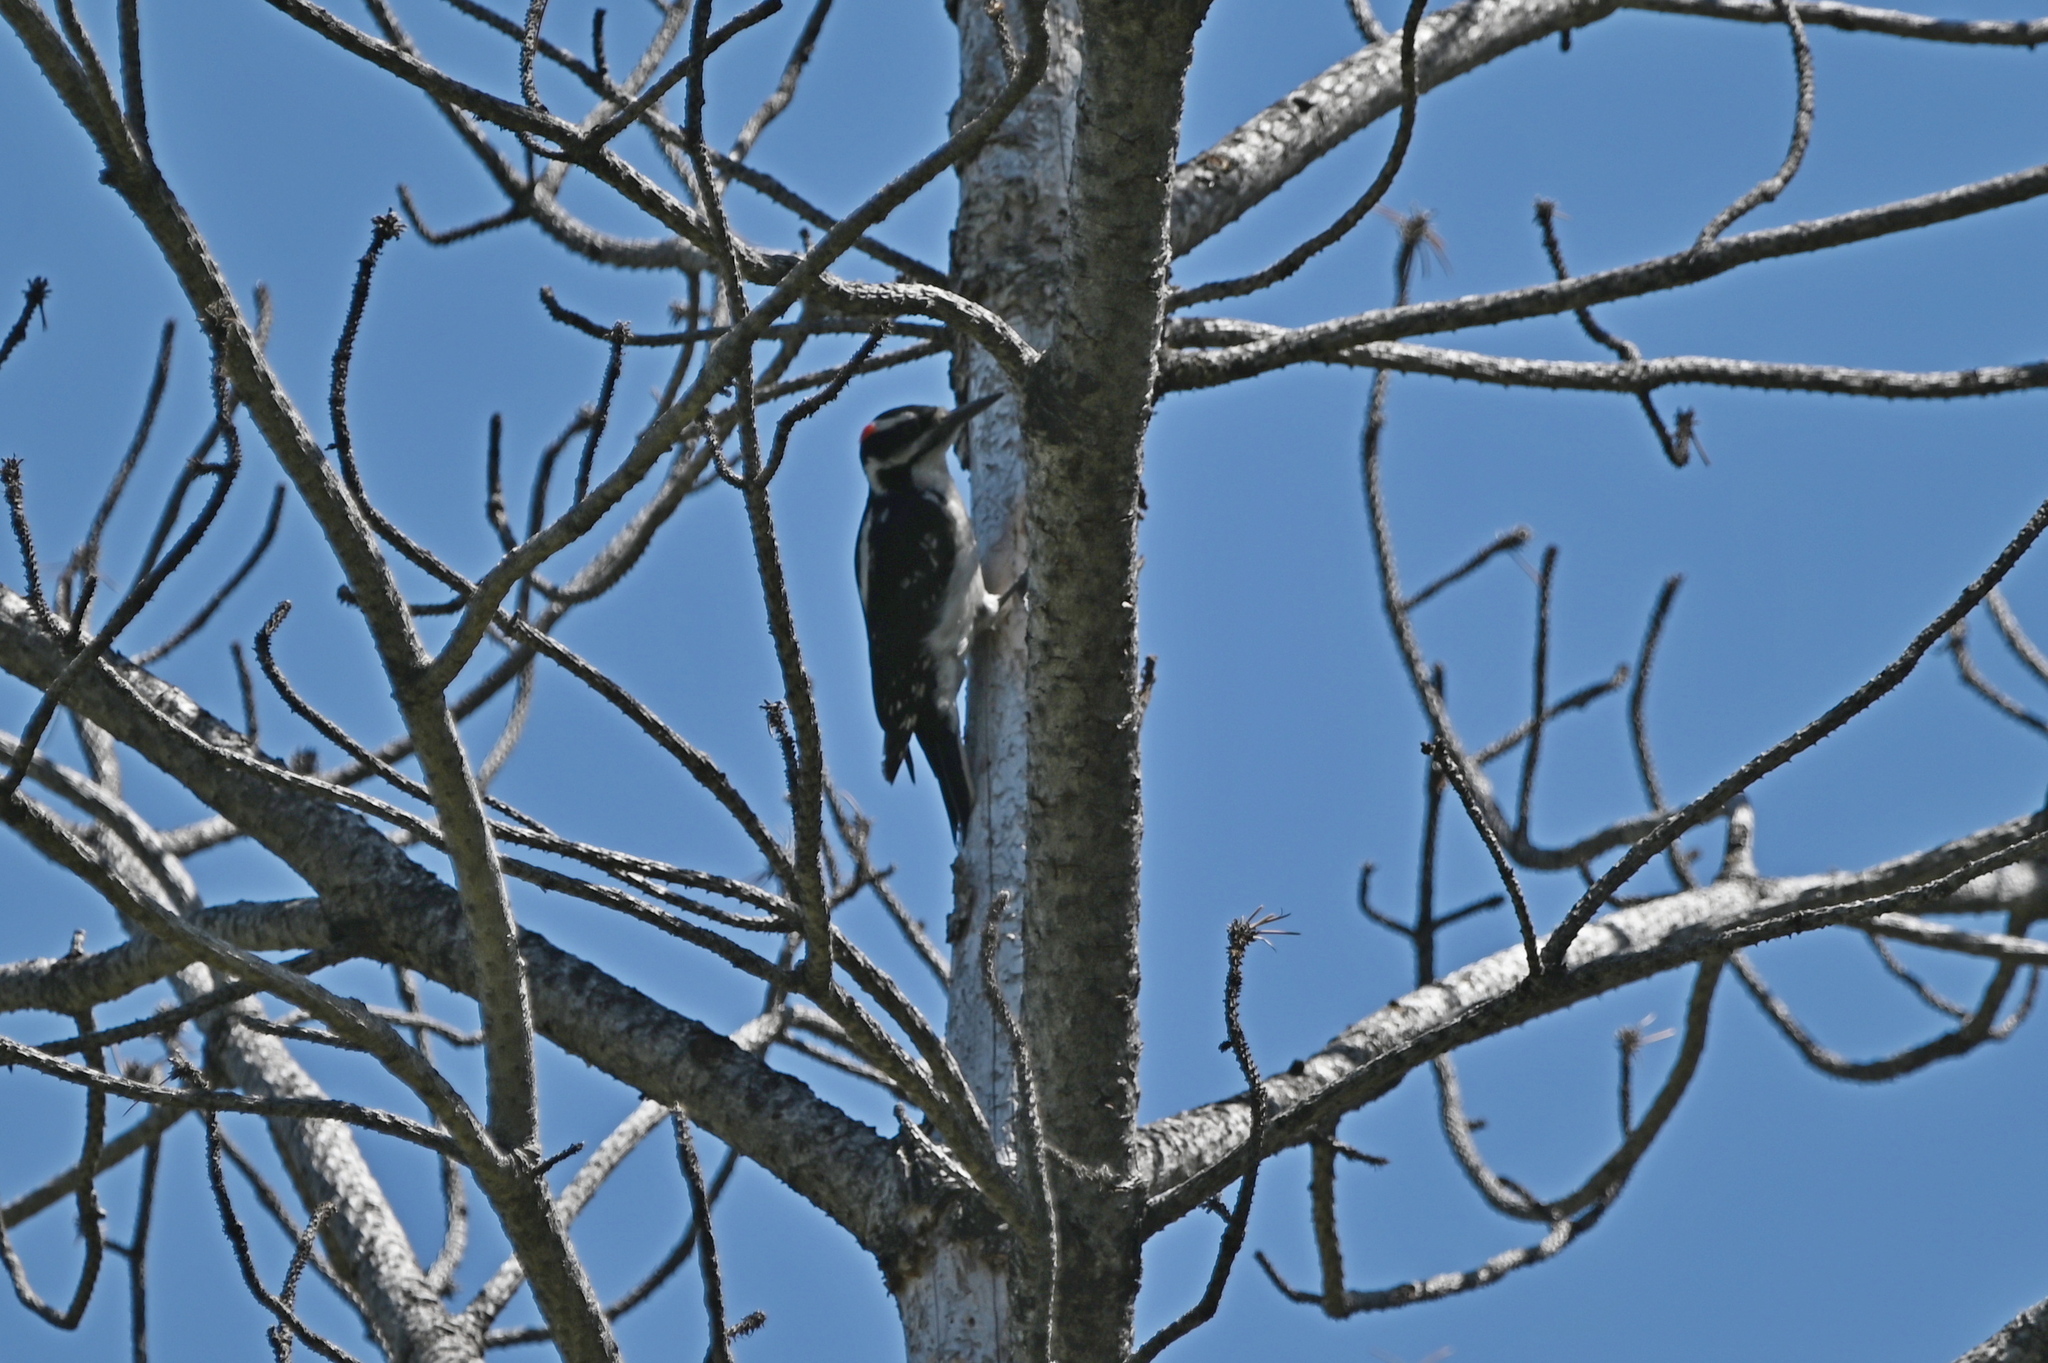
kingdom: Animalia
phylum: Chordata
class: Aves
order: Piciformes
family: Picidae
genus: Leuconotopicus
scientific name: Leuconotopicus villosus
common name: Hairy woodpecker
